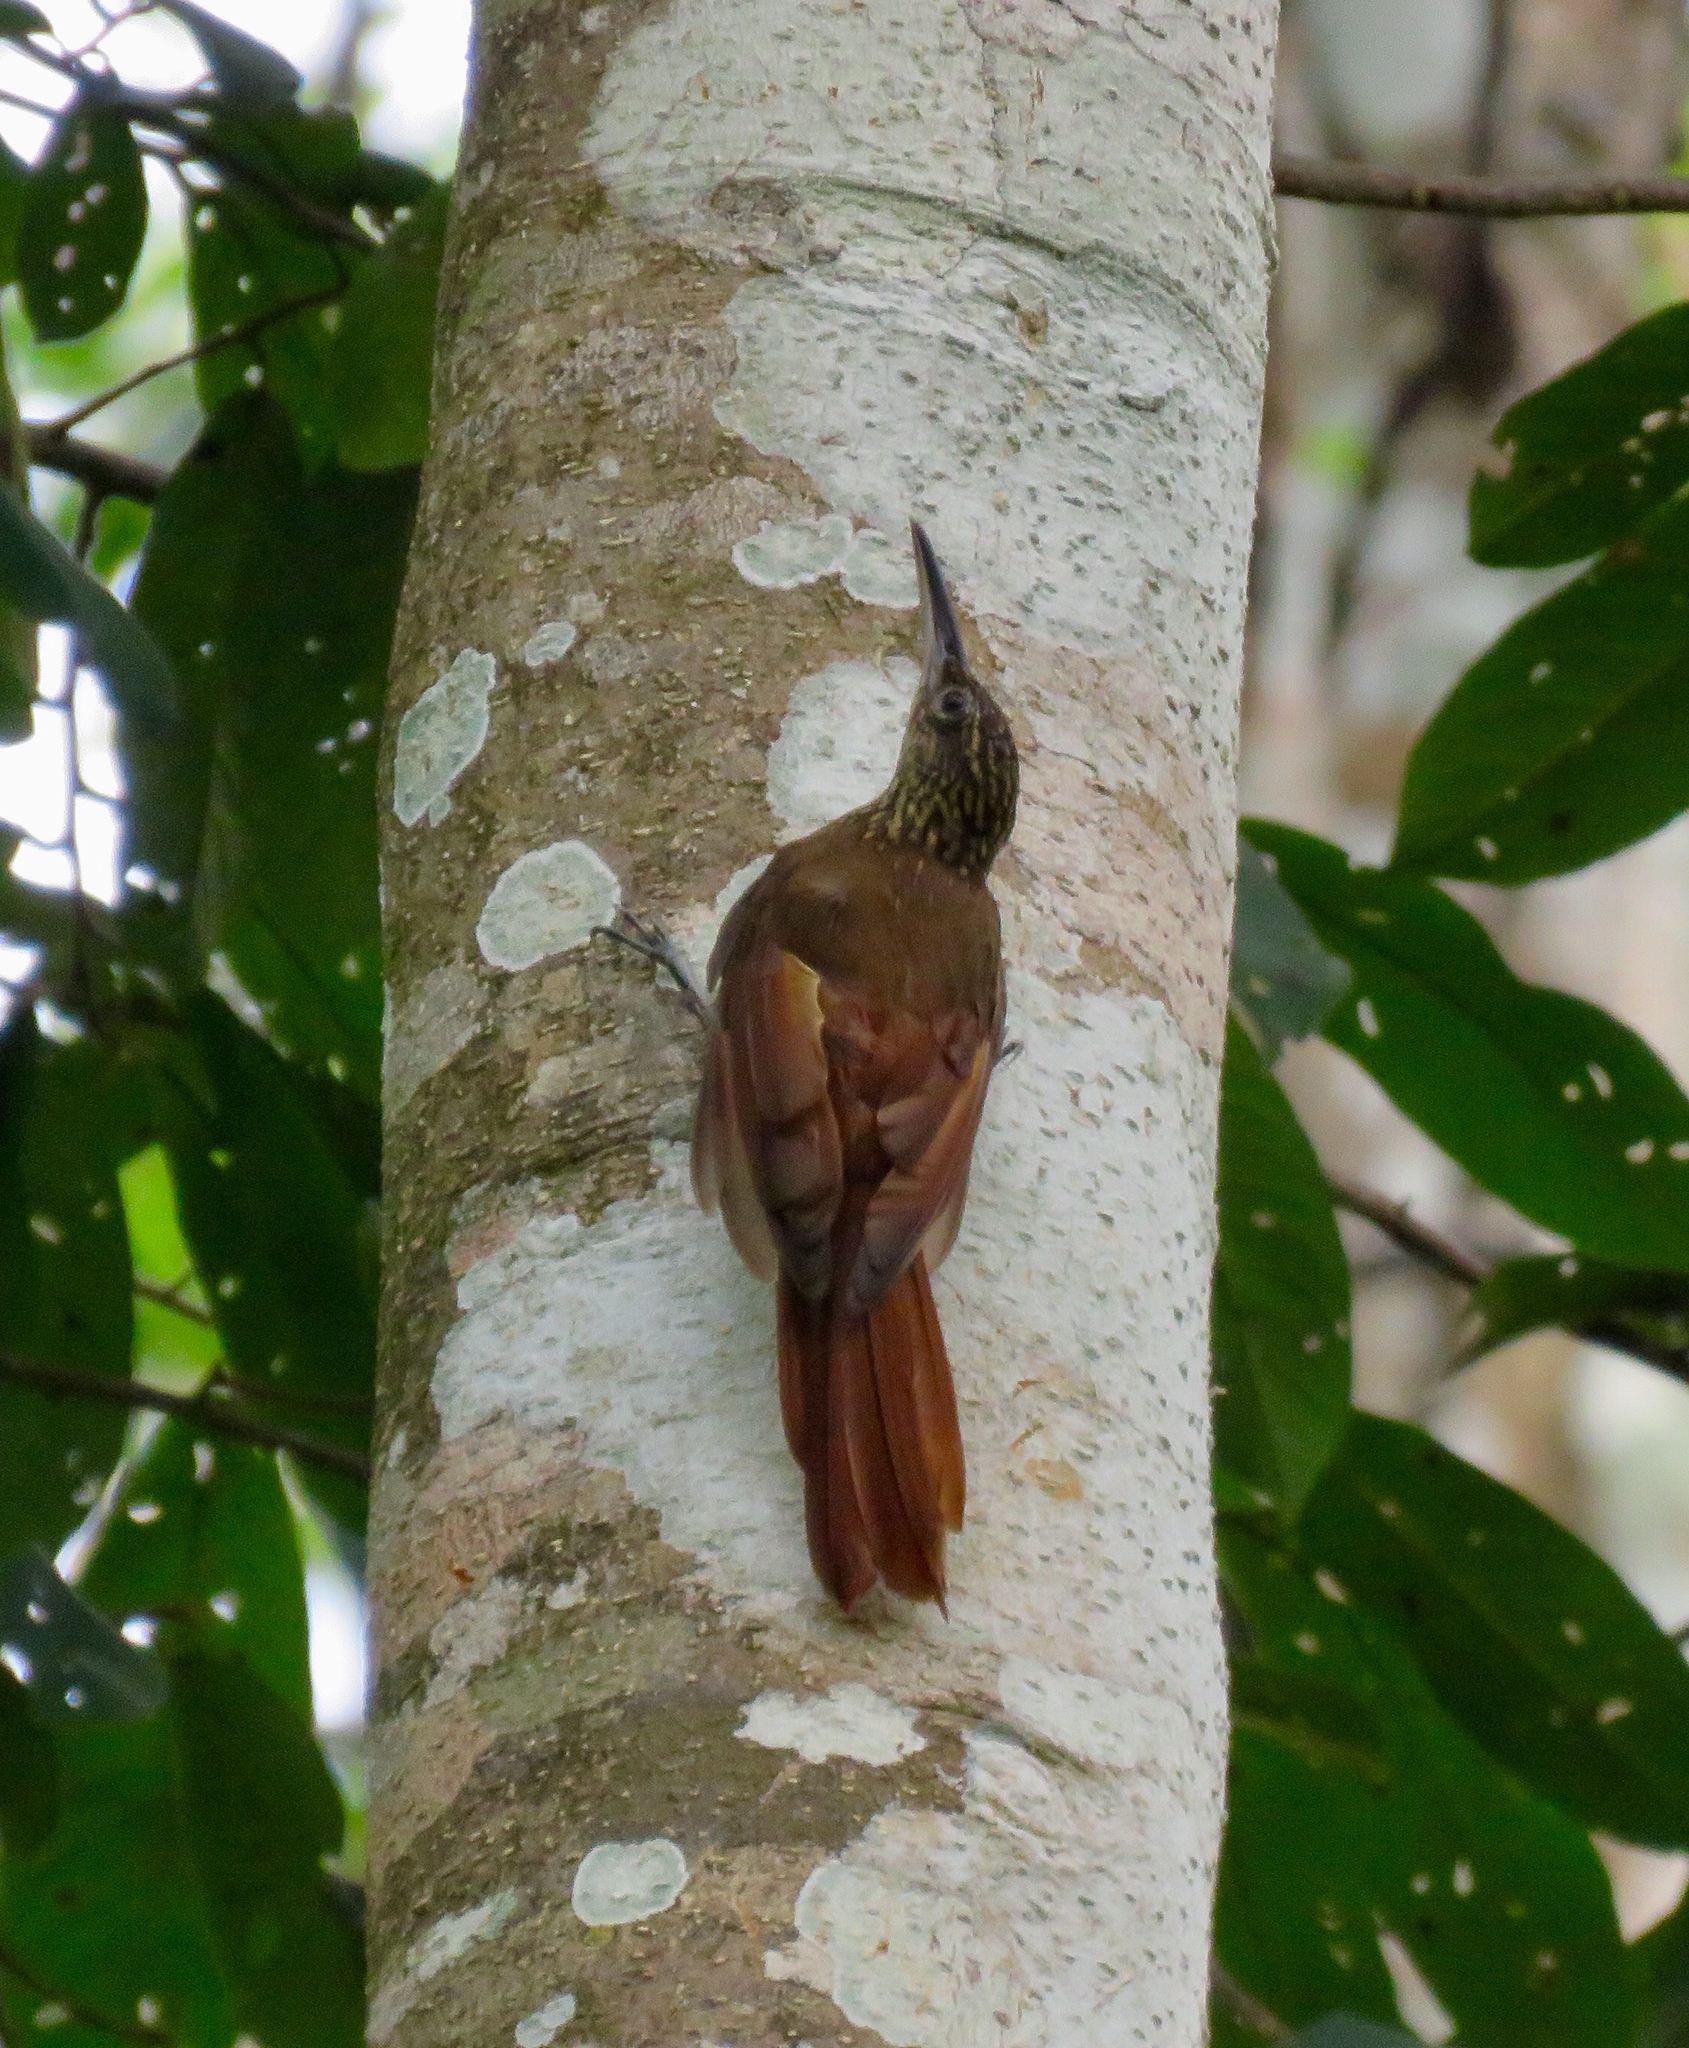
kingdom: Animalia
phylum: Chordata
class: Aves
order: Passeriformes
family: Furnariidae
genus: Xiphorhynchus
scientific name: Xiphorhynchus susurrans
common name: Cocoa woodcreeper
